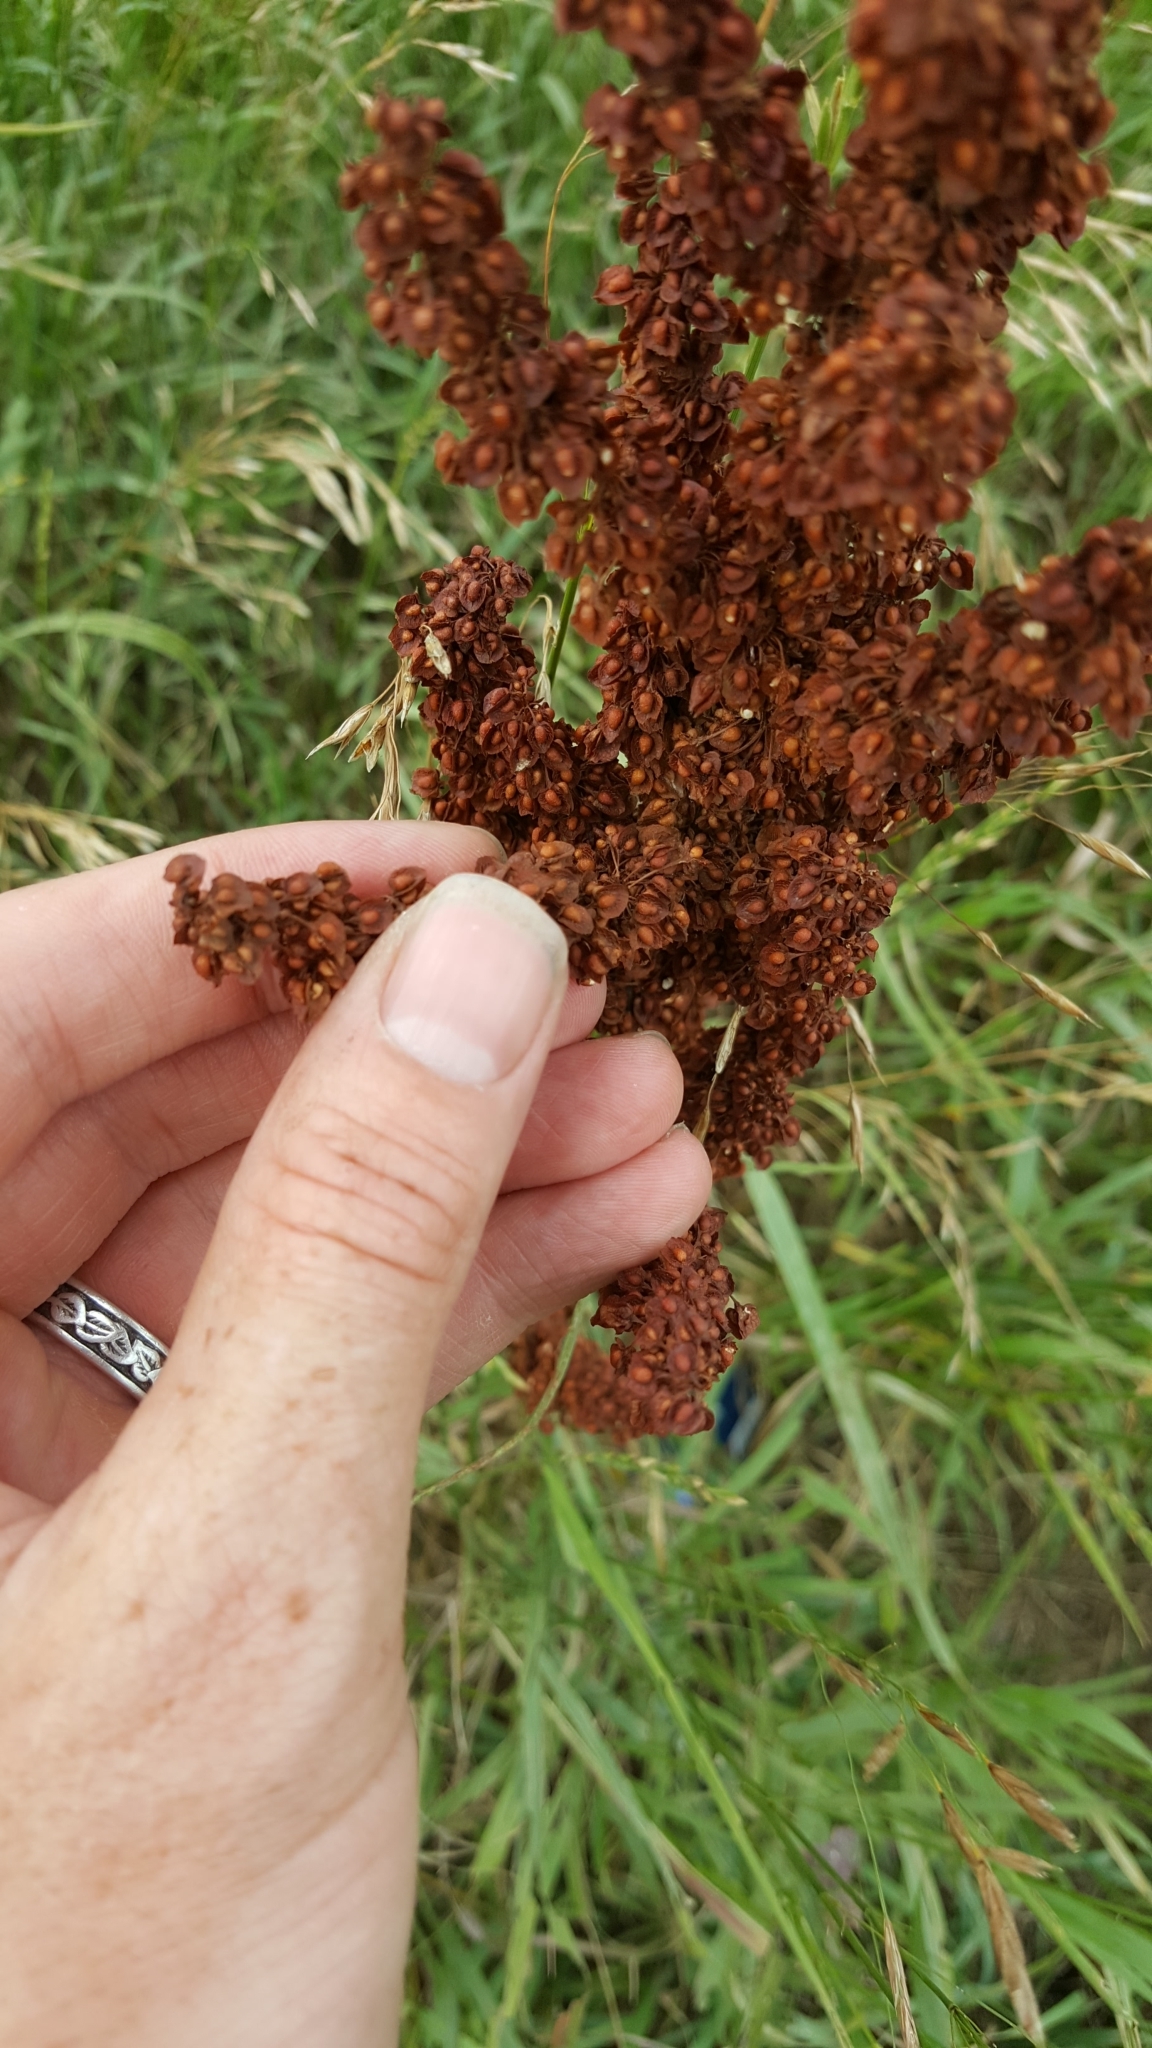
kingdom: Plantae
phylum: Tracheophyta
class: Magnoliopsida
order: Caryophyllales
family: Polygonaceae
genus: Rumex
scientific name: Rumex crispus
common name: Curled dock
